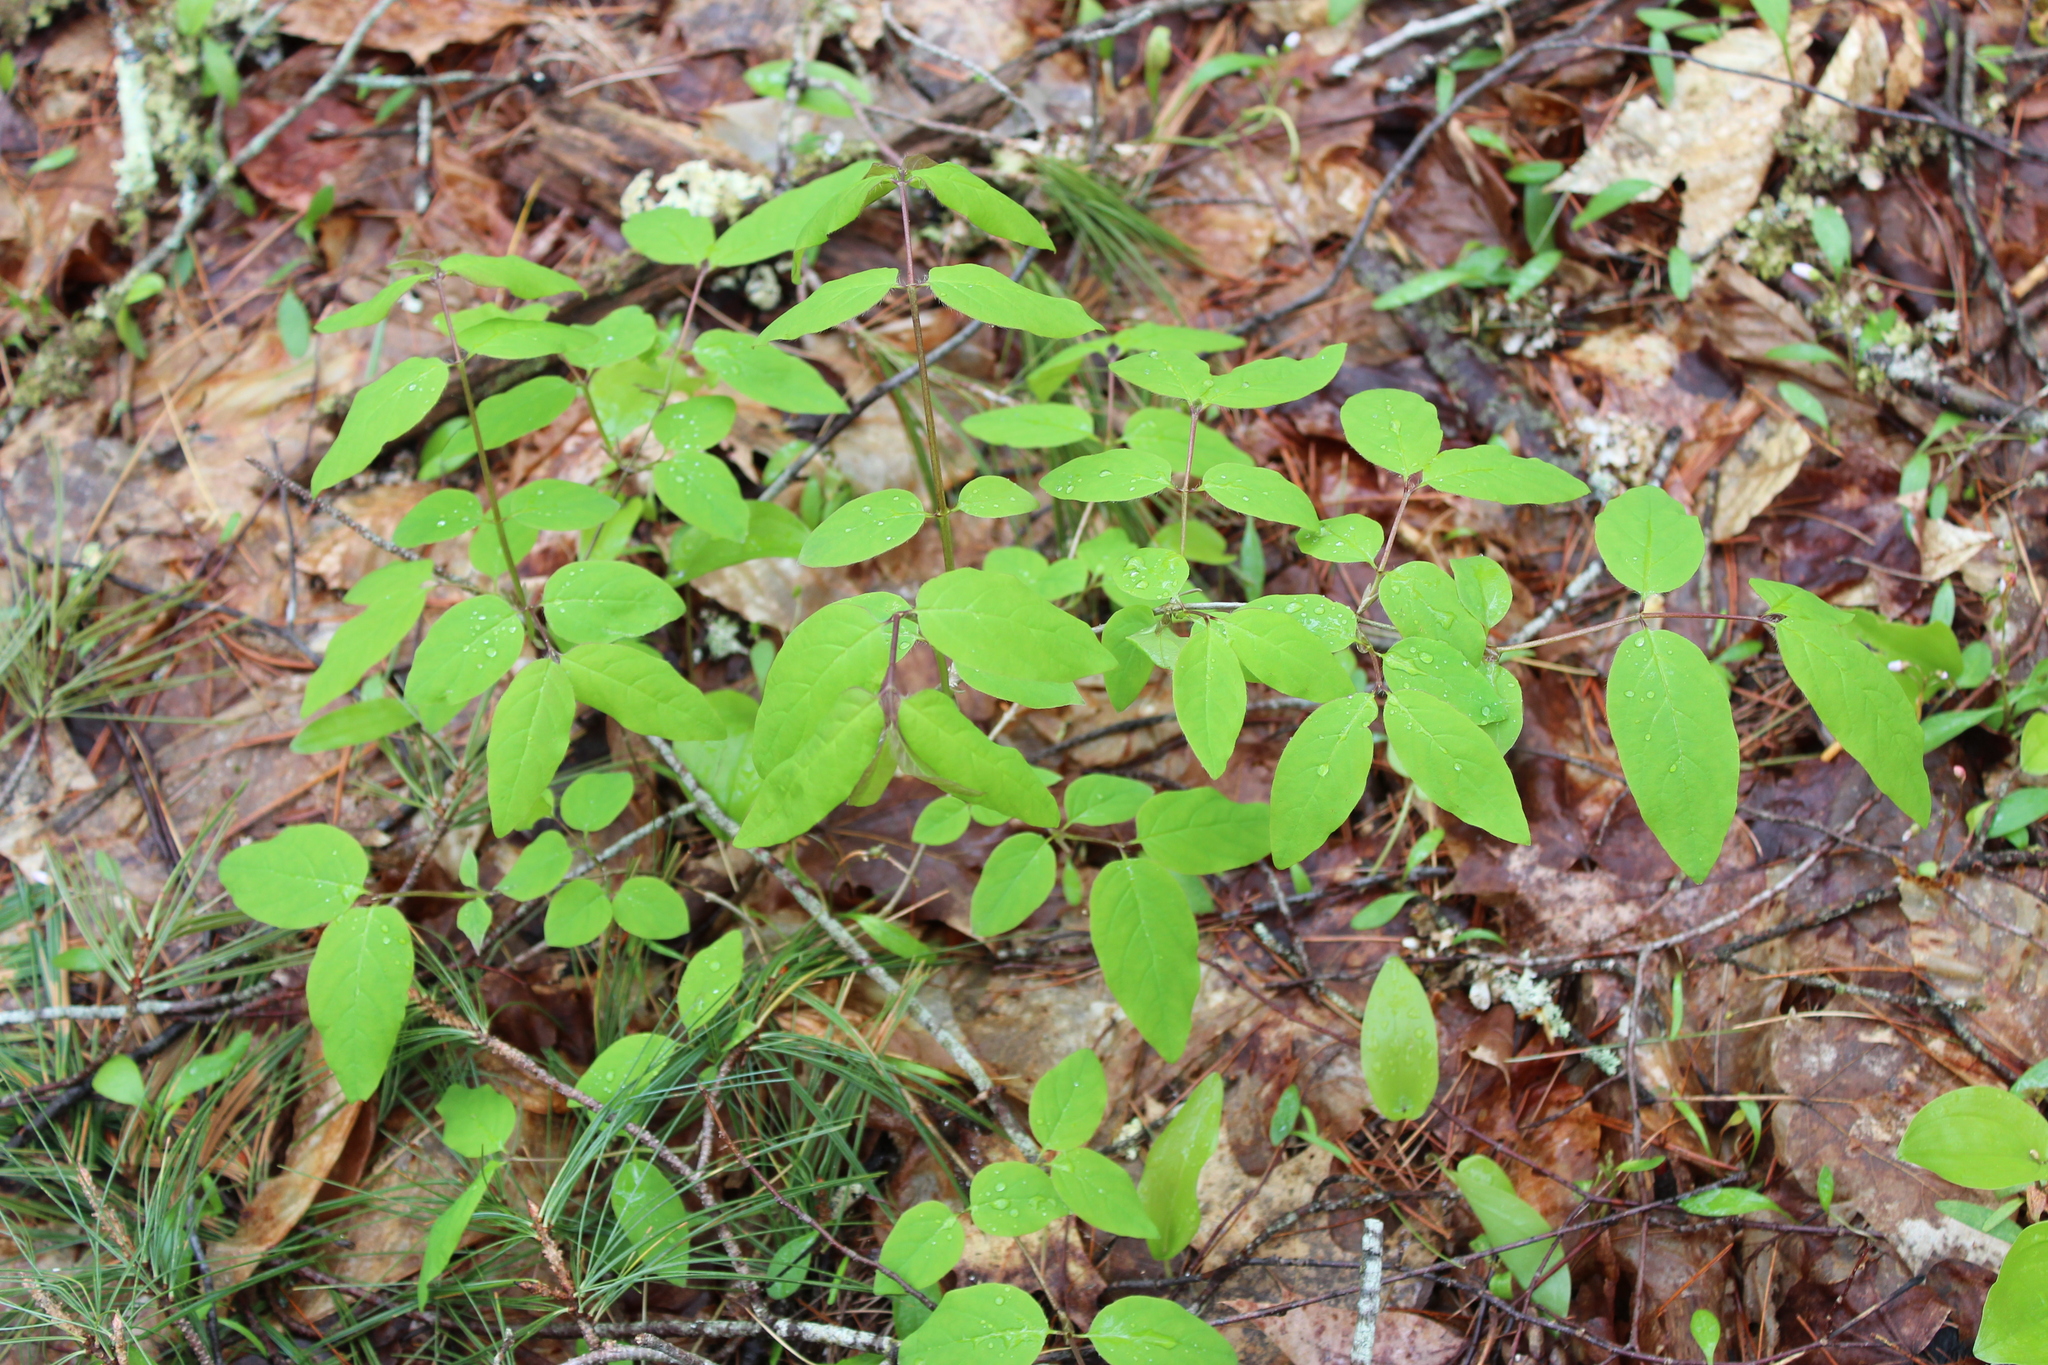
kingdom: Plantae
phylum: Tracheophyta
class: Magnoliopsida
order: Dipsacales
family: Caprifoliaceae
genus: Lonicera
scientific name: Lonicera canadensis
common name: American fly-honeysuckle
